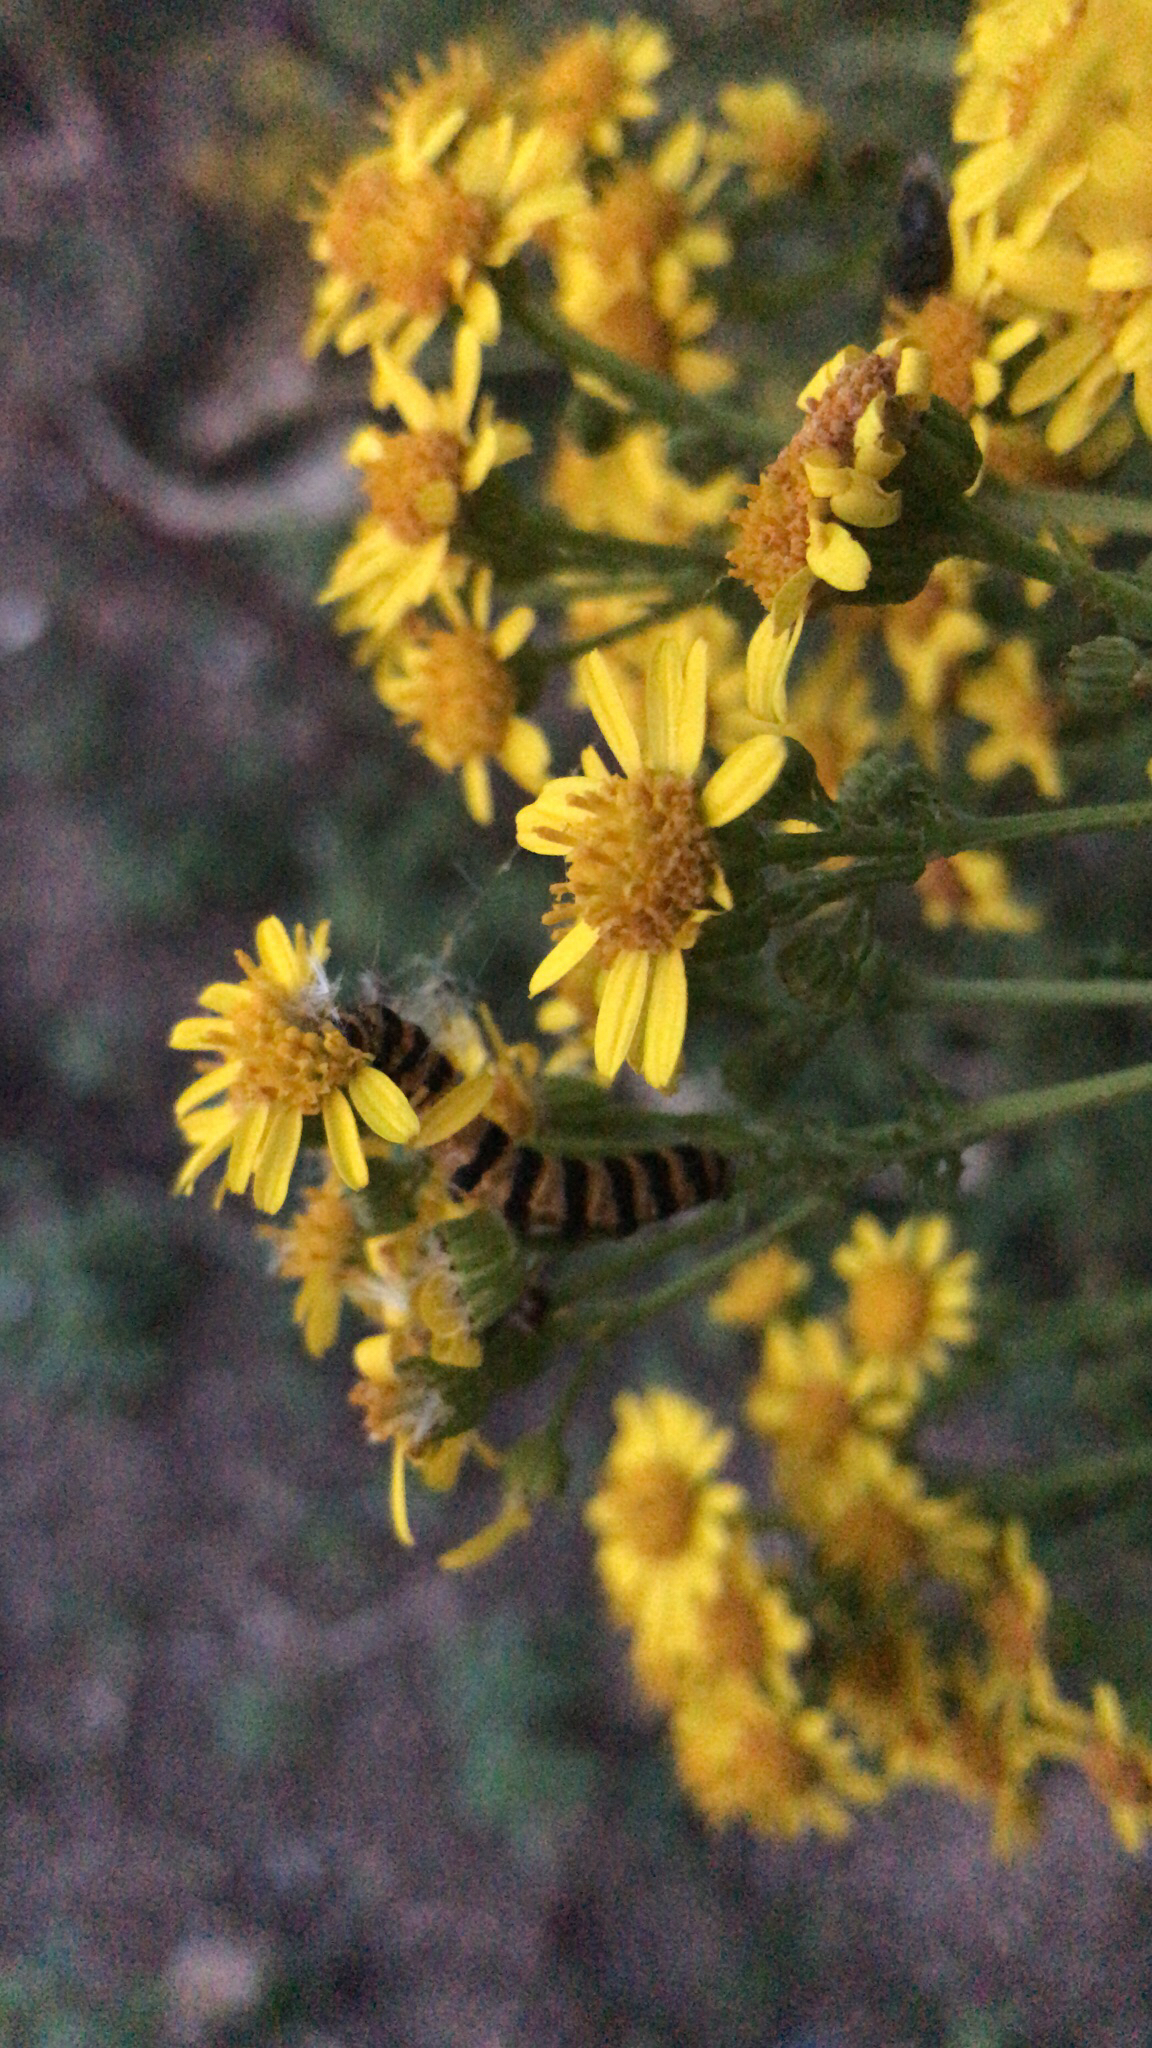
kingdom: Animalia
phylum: Arthropoda
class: Insecta
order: Lepidoptera
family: Erebidae
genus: Tyria
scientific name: Tyria jacobaeae
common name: Cinnabar
